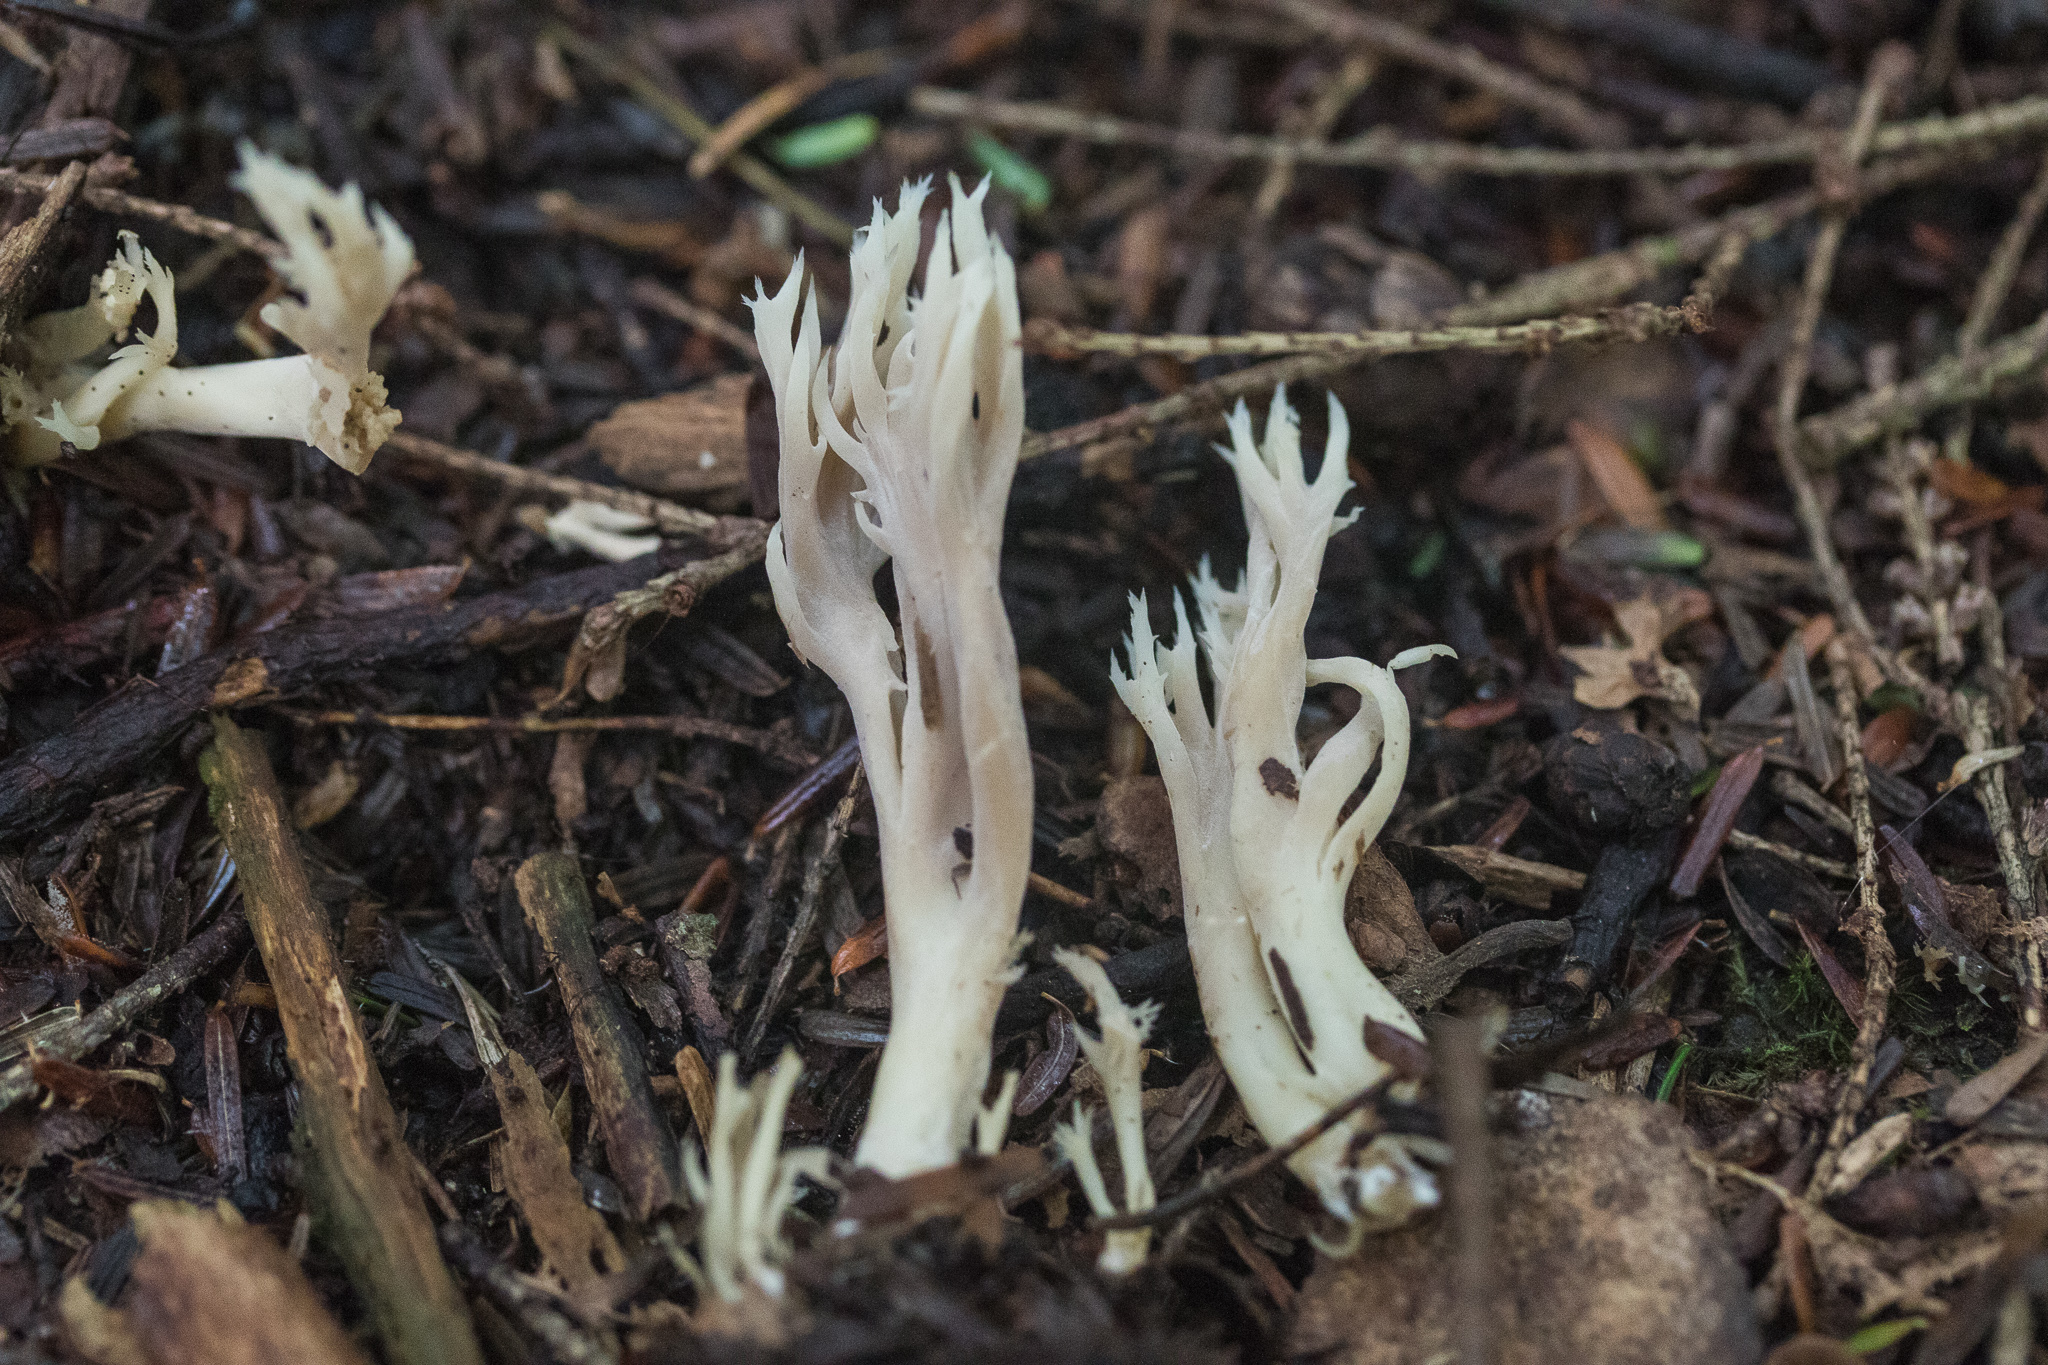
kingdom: Fungi
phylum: Basidiomycota
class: Agaricomycetes
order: Cantharellales
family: Hydnaceae
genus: Clavulina
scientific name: Clavulina coralloides
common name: Crested coral
